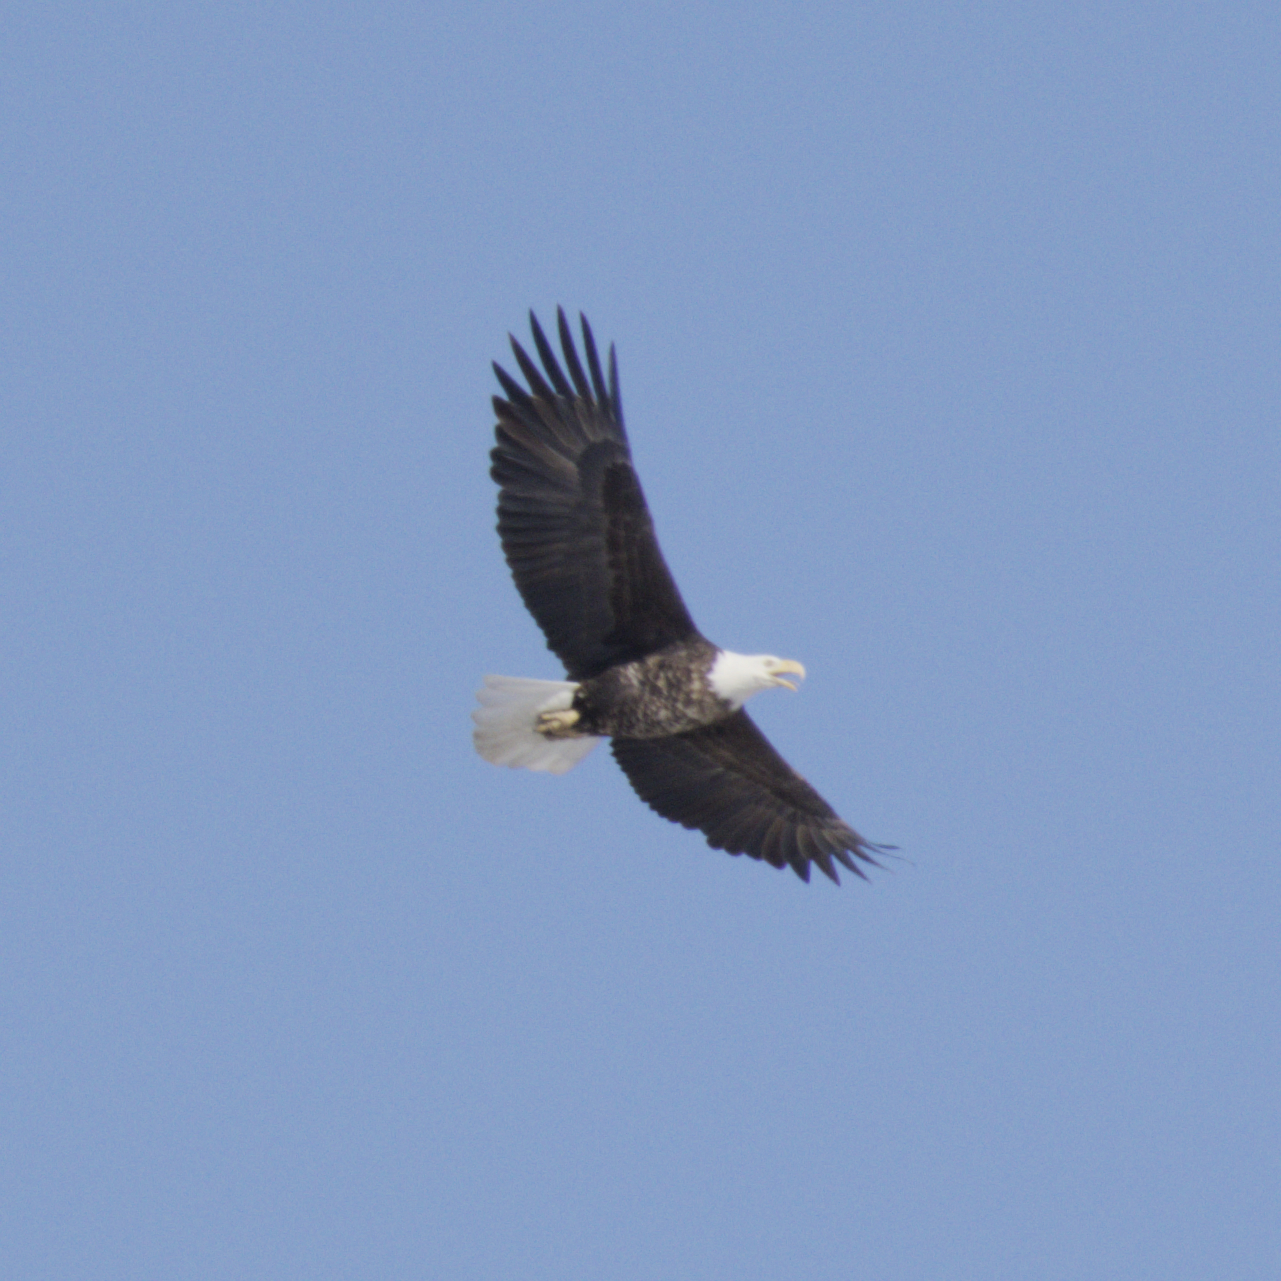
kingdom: Animalia
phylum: Chordata
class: Aves
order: Accipitriformes
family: Accipitridae
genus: Haliaeetus
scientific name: Haliaeetus leucocephalus
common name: Bald eagle
